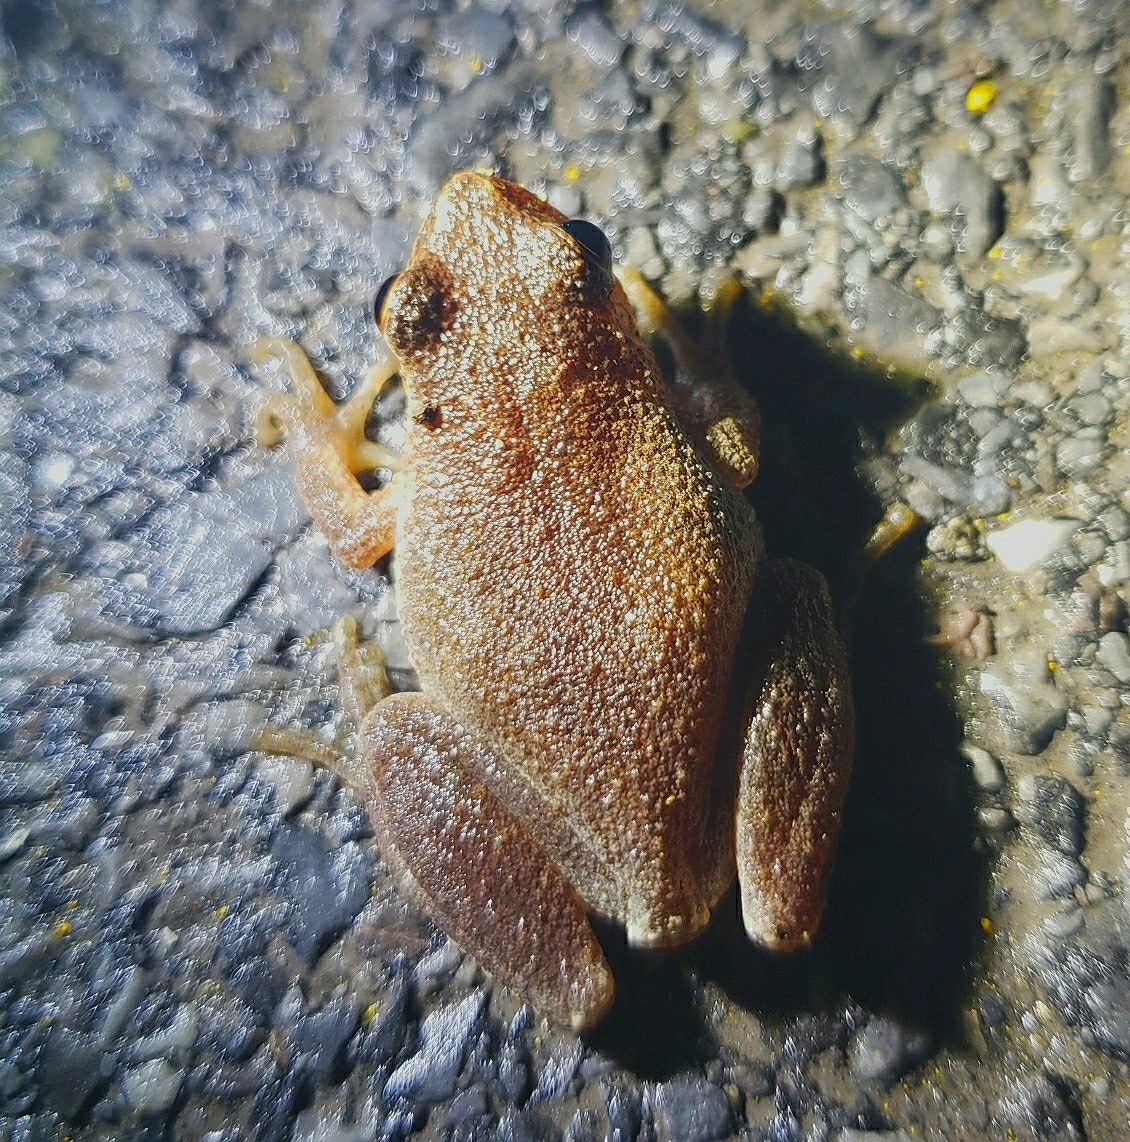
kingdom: Animalia
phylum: Chordata
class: Amphibia
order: Anura
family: Hylidae
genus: Pseudacris
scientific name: Pseudacris crucifer
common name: Spring peeper
